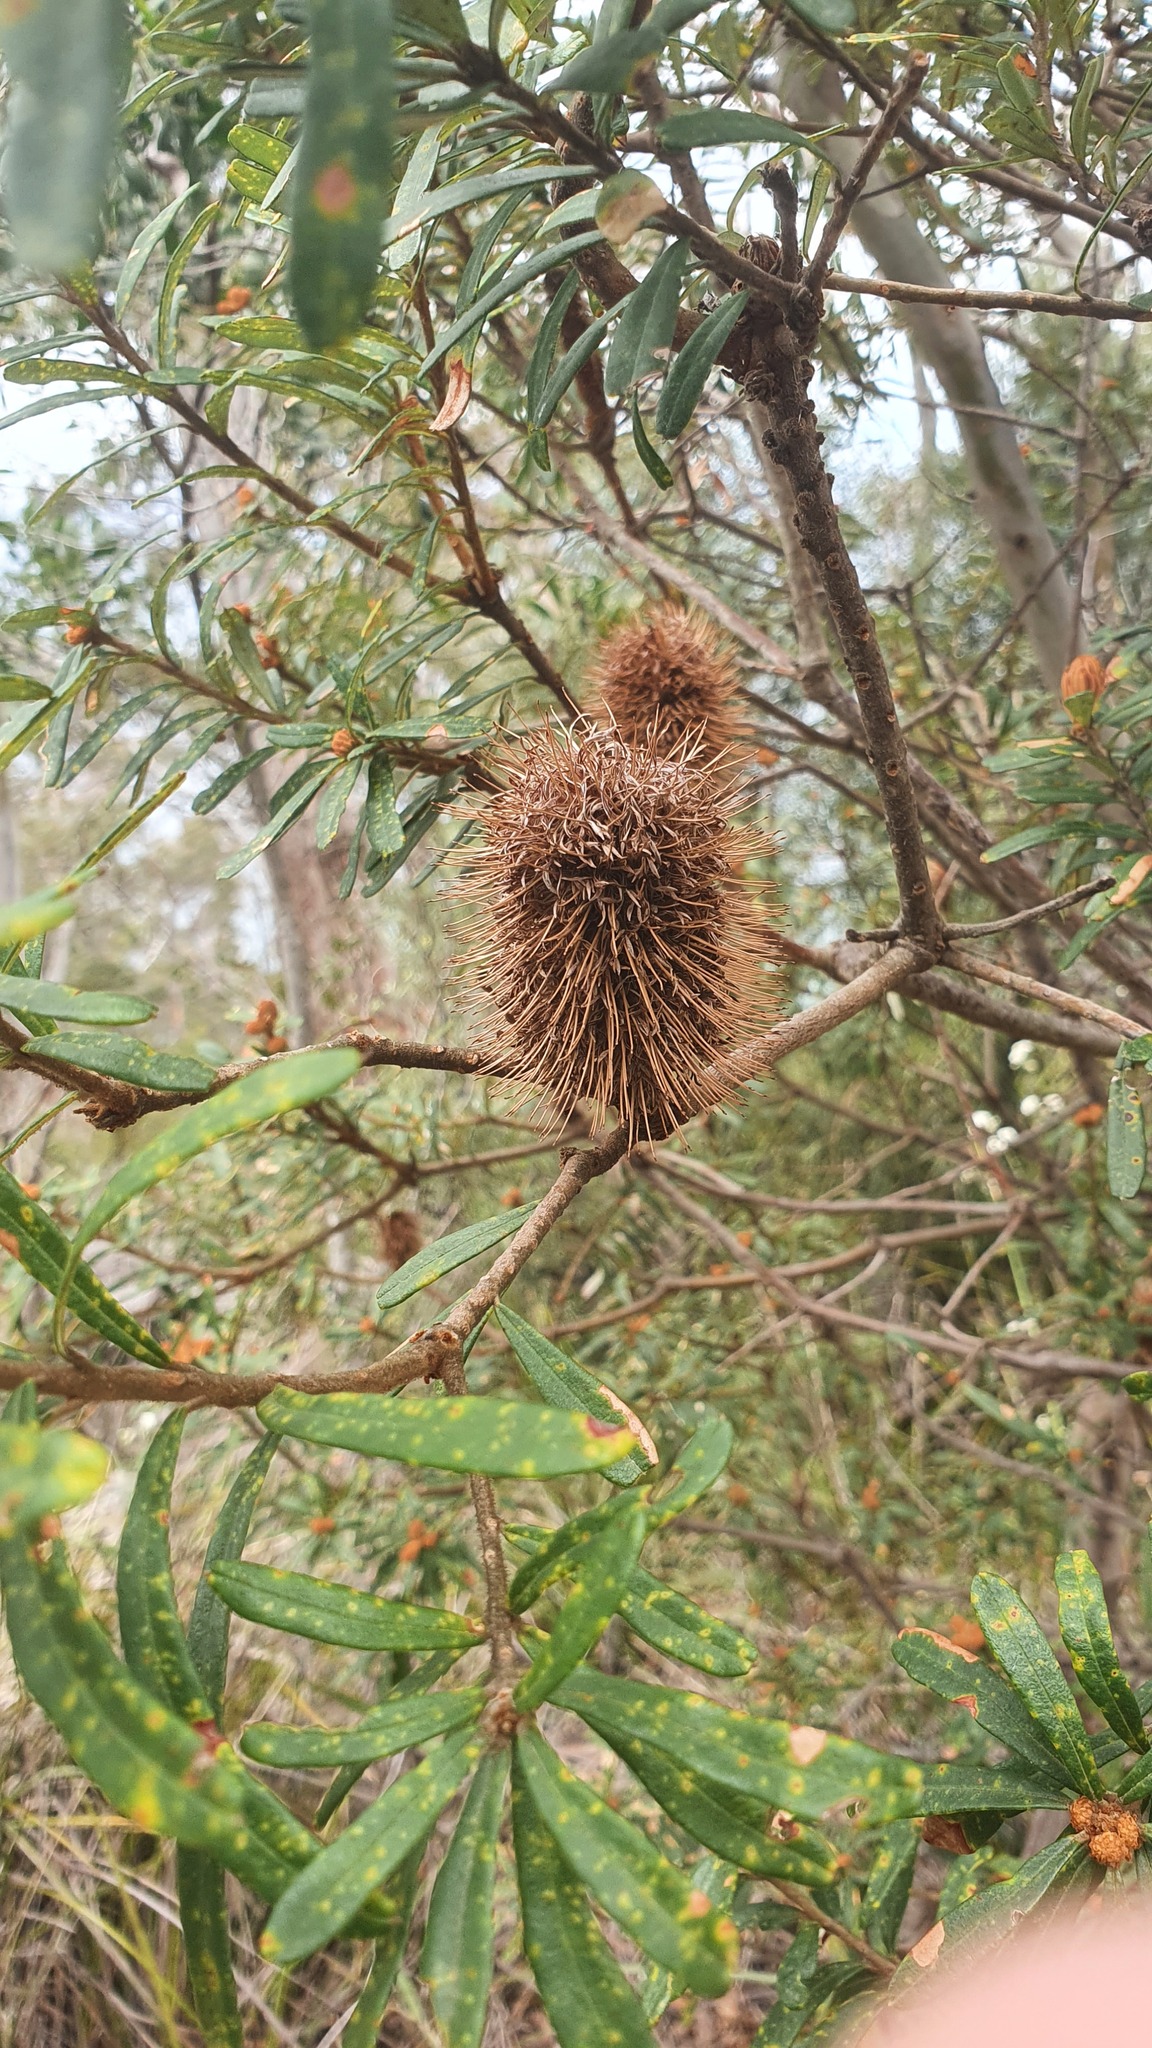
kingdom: Plantae
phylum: Tracheophyta
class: Magnoliopsida
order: Proteales
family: Proteaceae
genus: Banksia
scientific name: Banksia marginata
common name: Silver banksia
